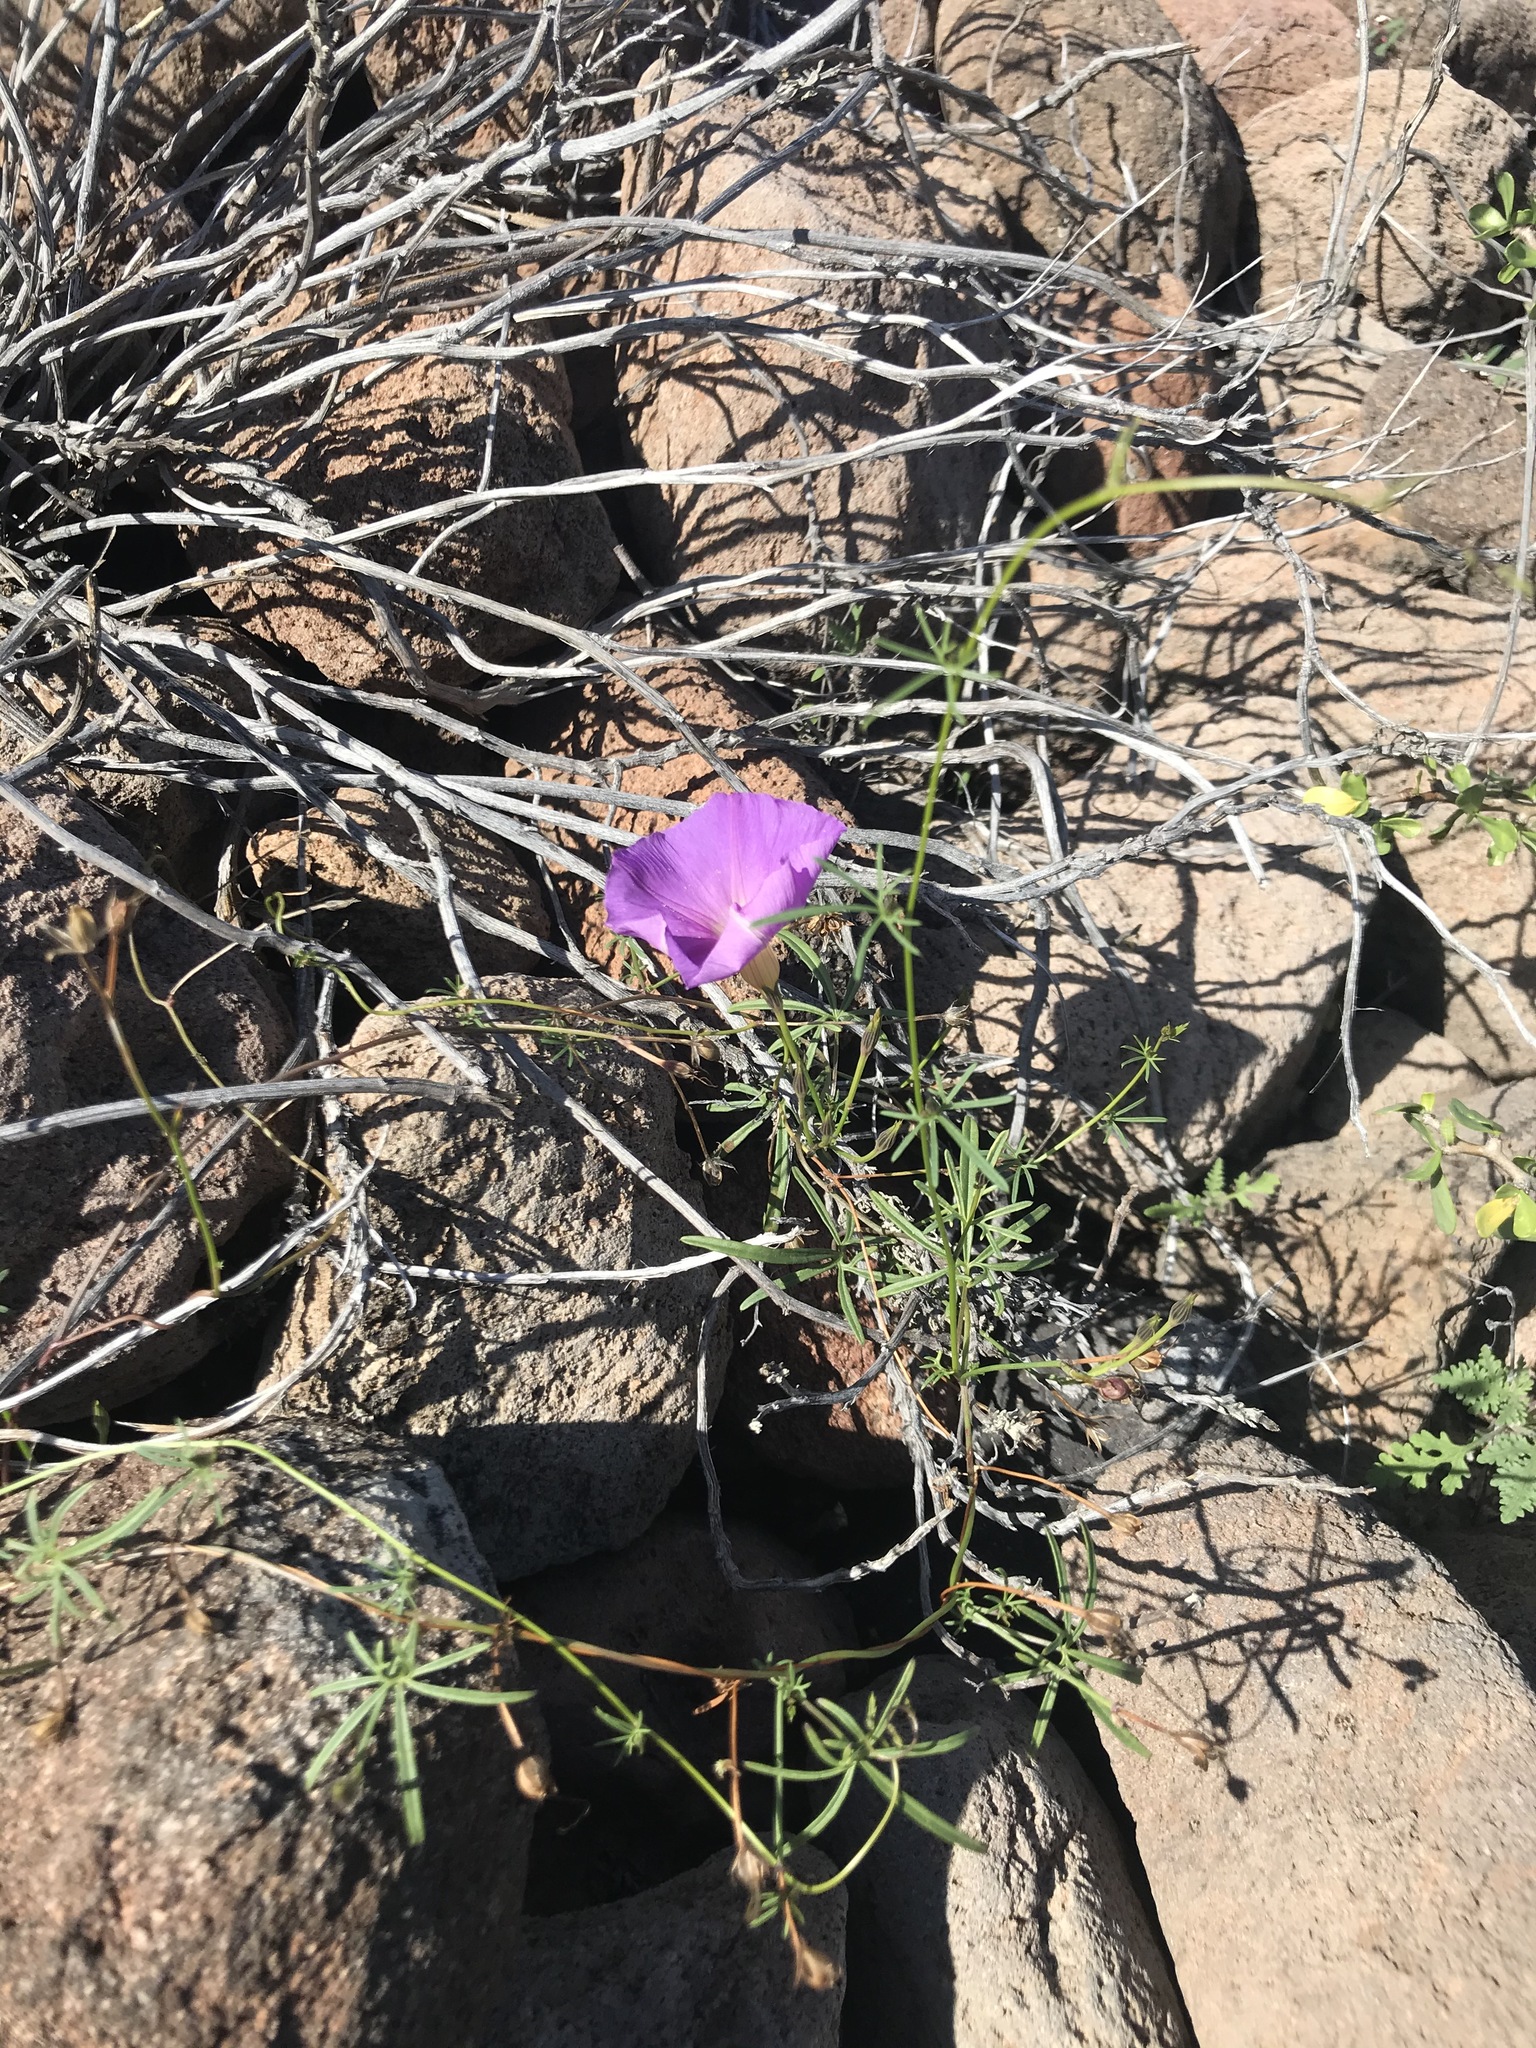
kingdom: Plantae
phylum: Tracheophyta
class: Magnoliopsida
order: Solanales
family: Convolvulaceae
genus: Ipomoea
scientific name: Ipomoea ternifolia
